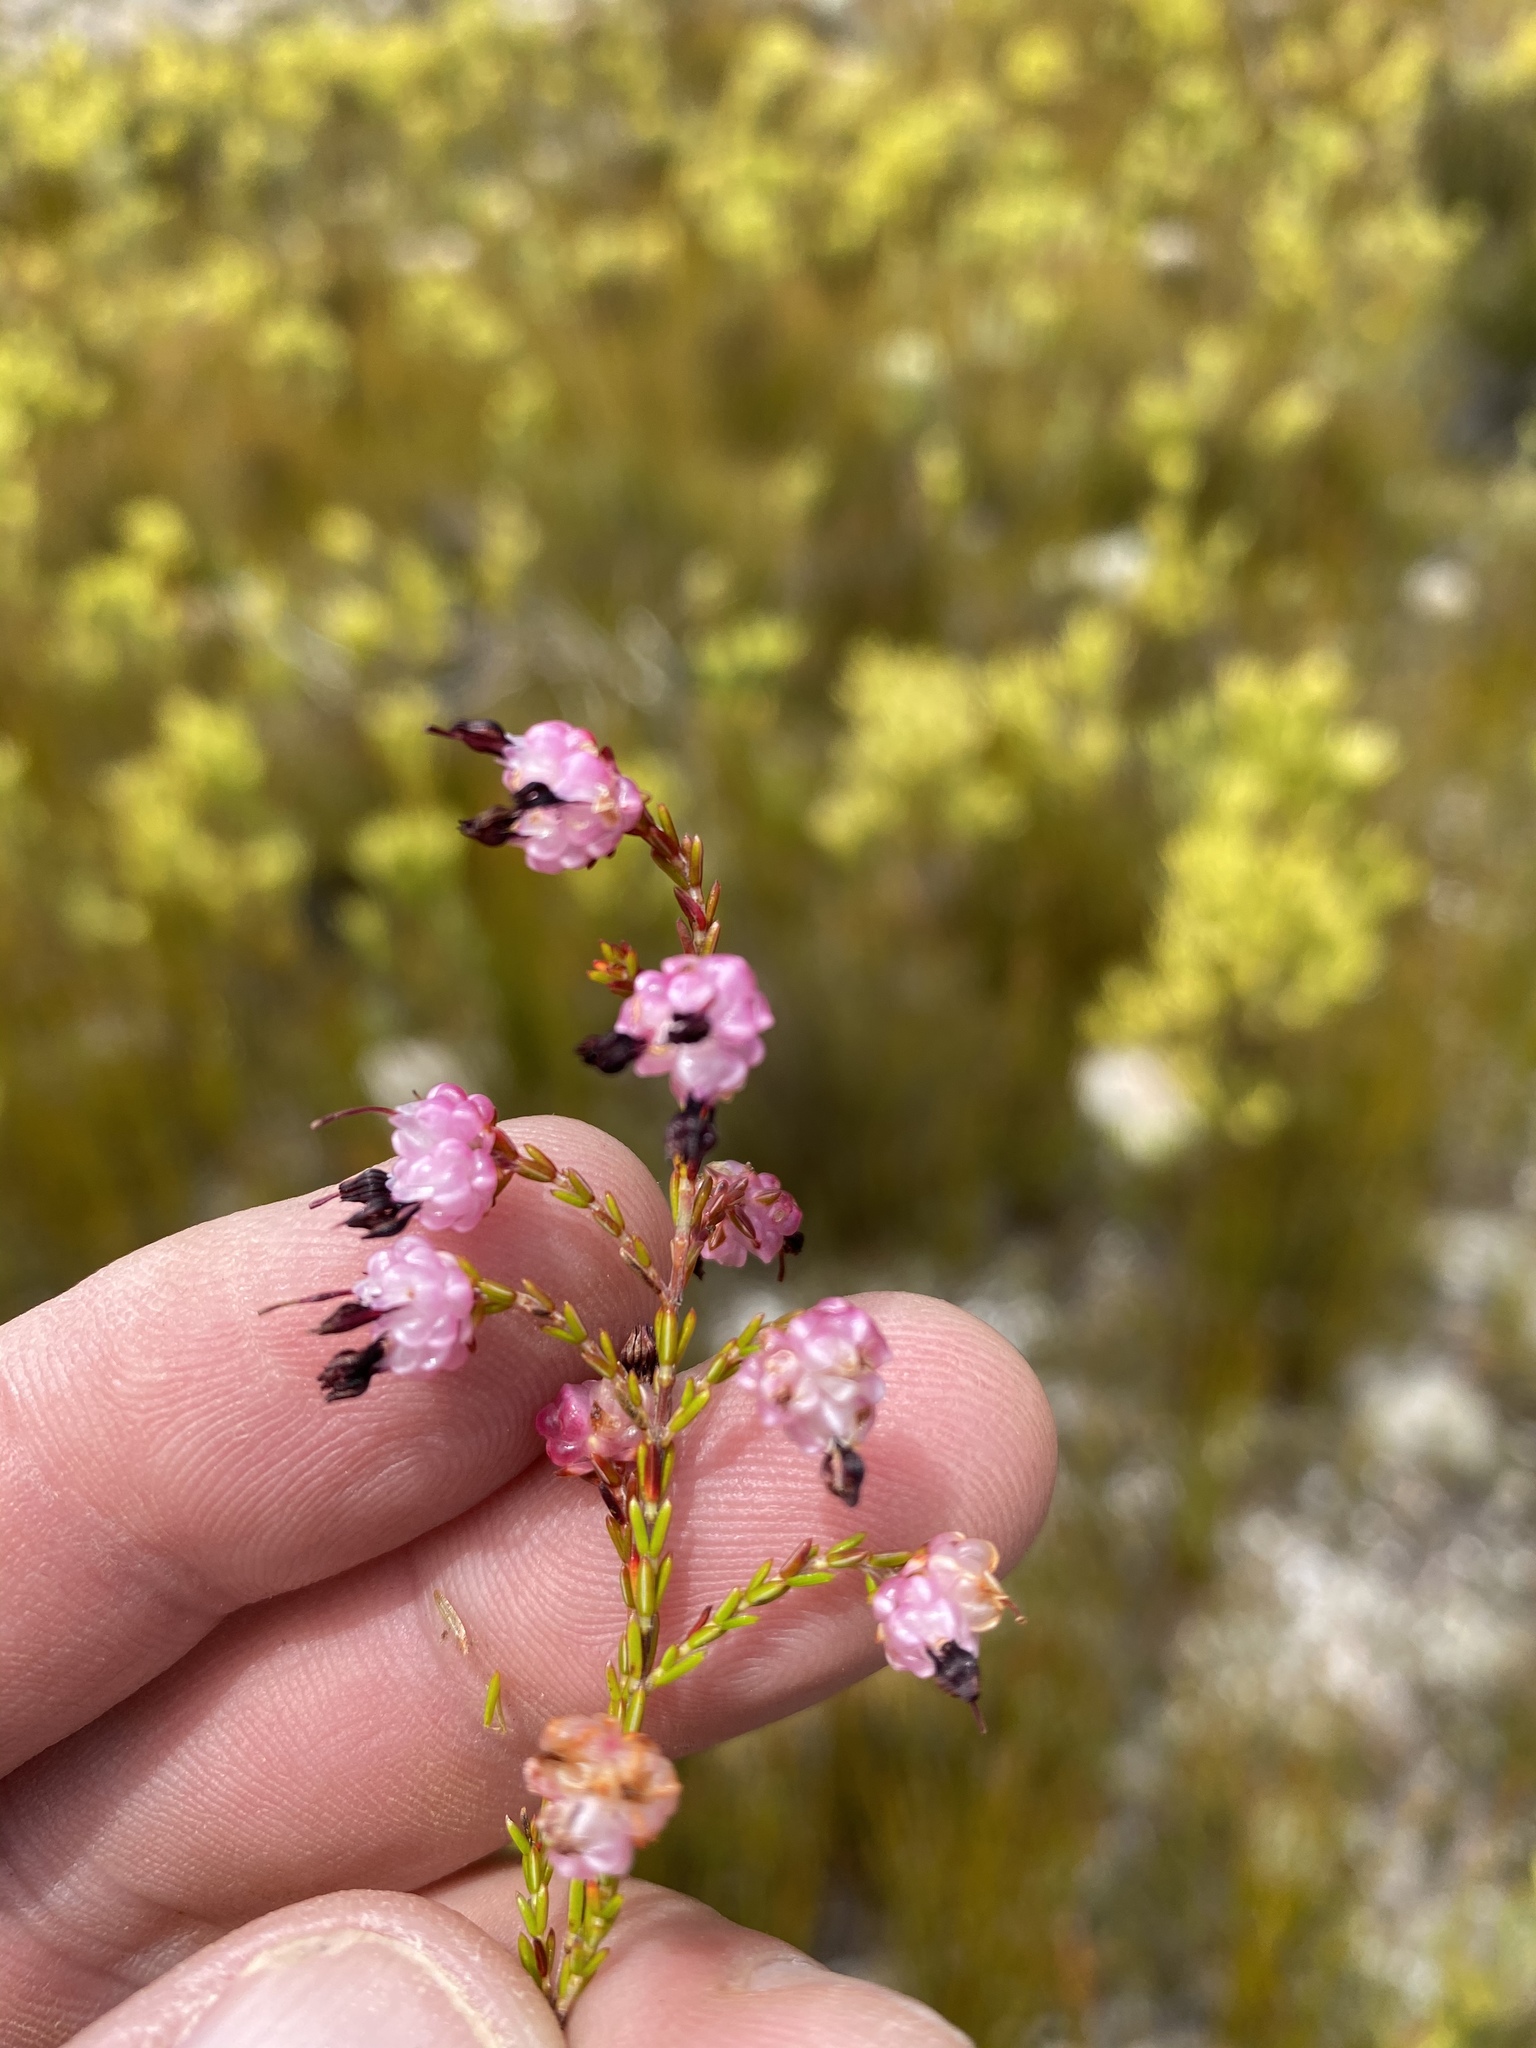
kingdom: Plantae
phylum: Tracheophyta
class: Magnoliopsida
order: Ericales
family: Ericaceae
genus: Erica
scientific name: Erica spumosa
